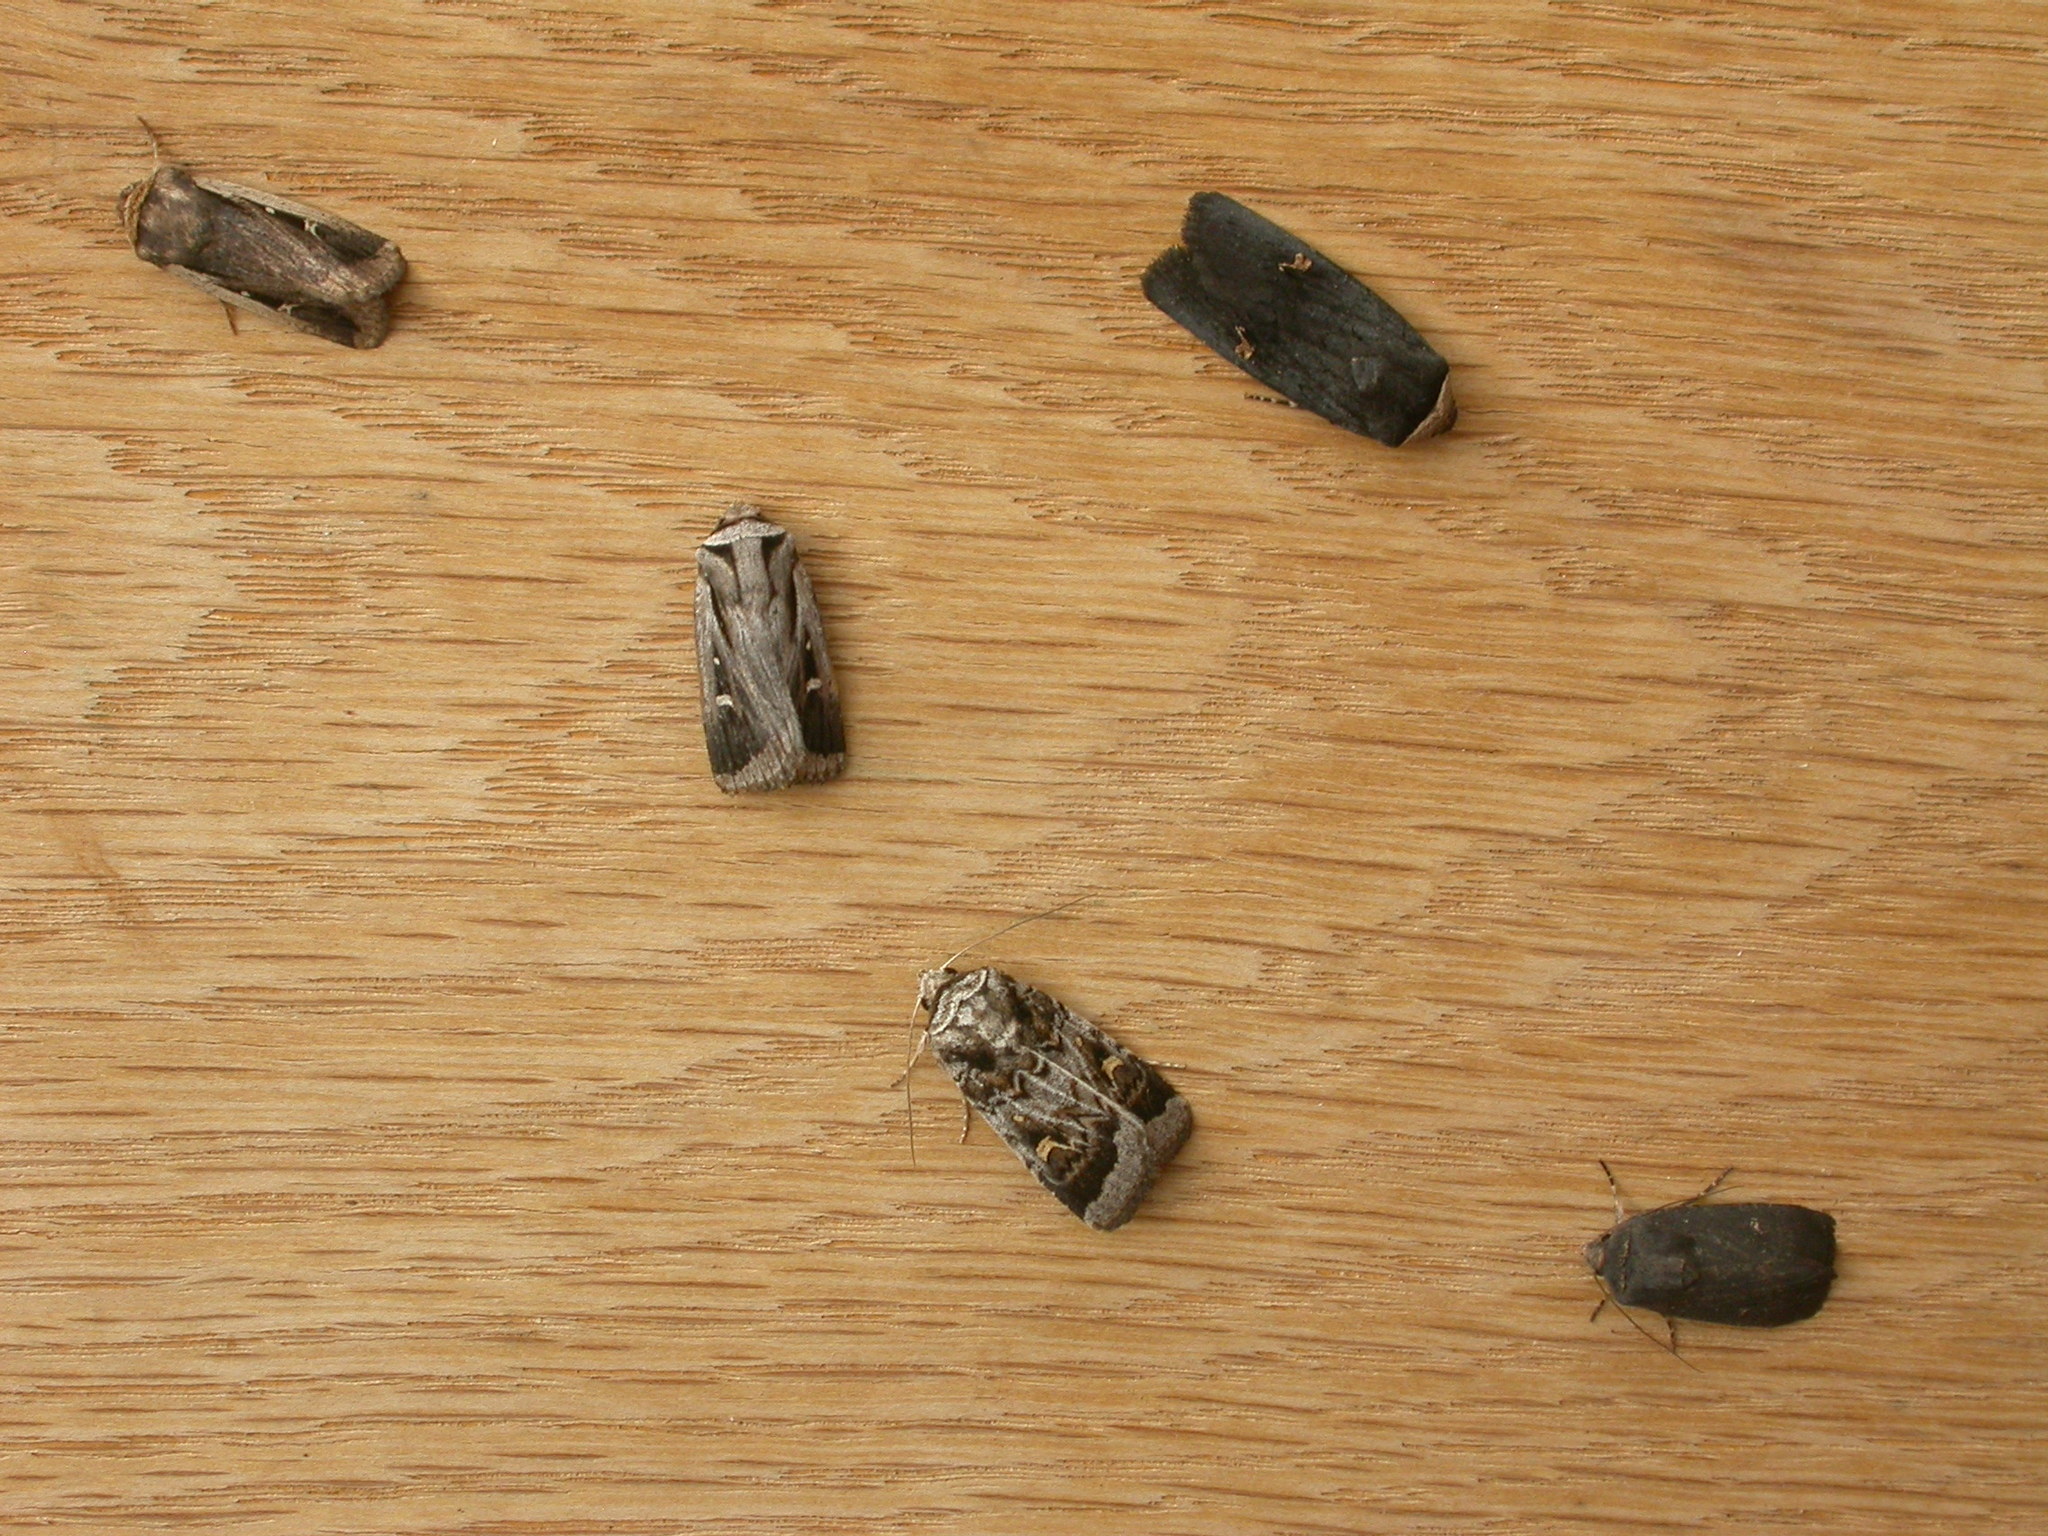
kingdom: Animalia
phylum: Arthropoda
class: Insecta
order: Lepidoptera
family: Noctuidae
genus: Proteuxoa
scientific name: Proteuxoa oxygona
